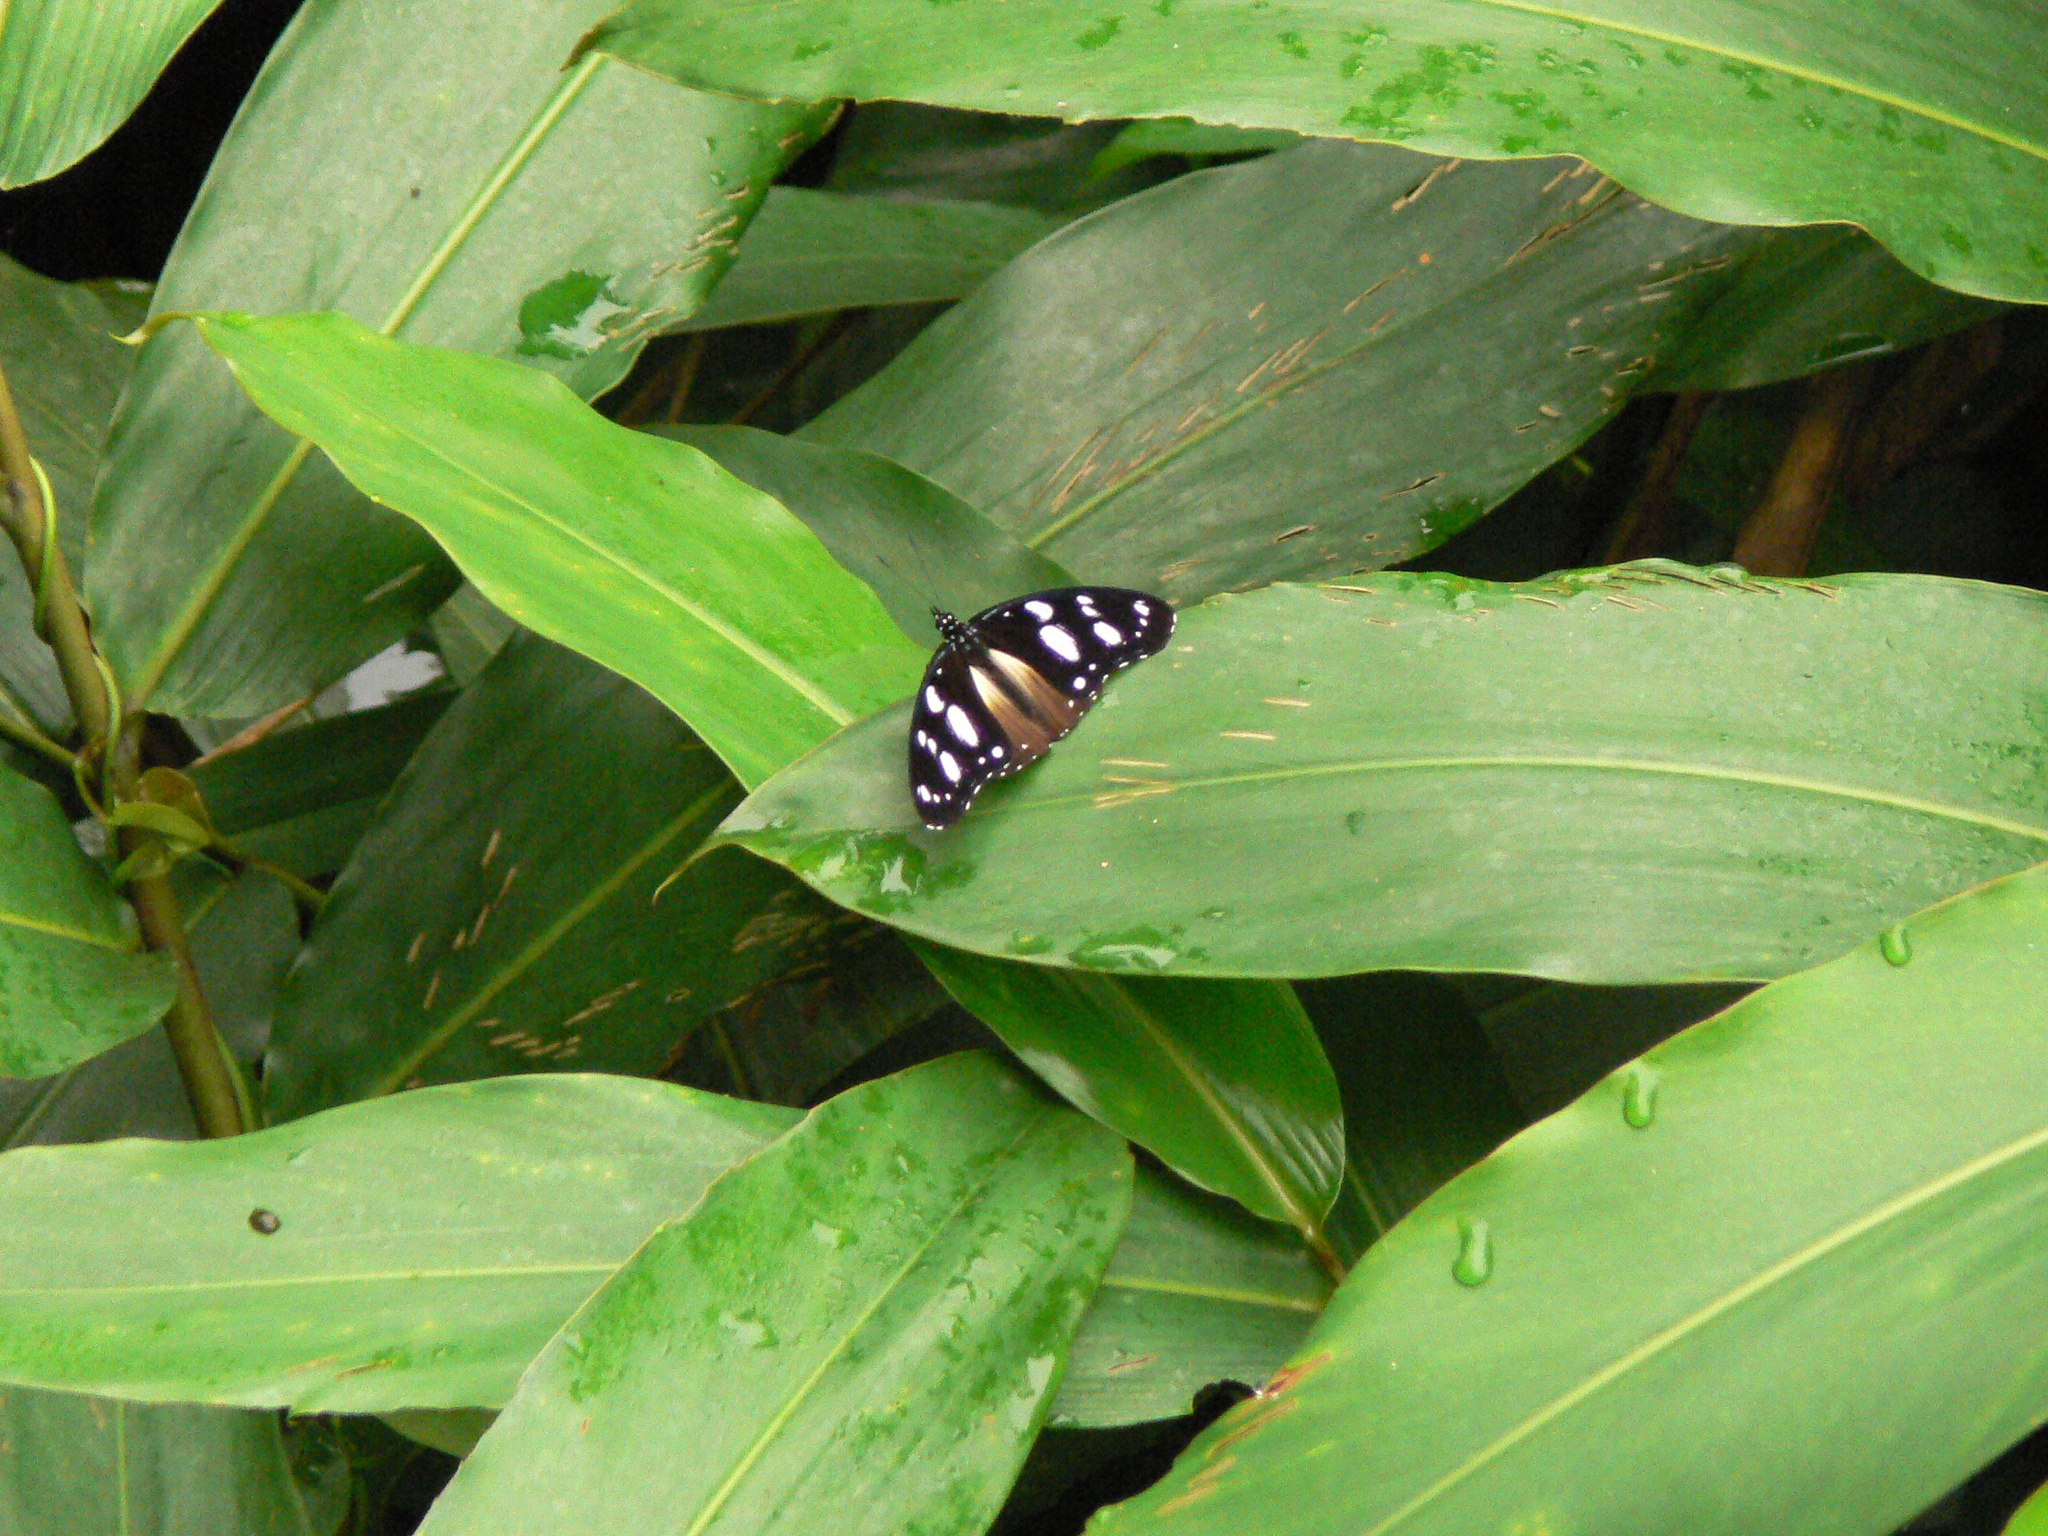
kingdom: Animalia
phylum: Arthropoda
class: Insecta
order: Lepidoptera
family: Nymphalidae
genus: Hypolimnas
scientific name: Hypolimnas dubius
